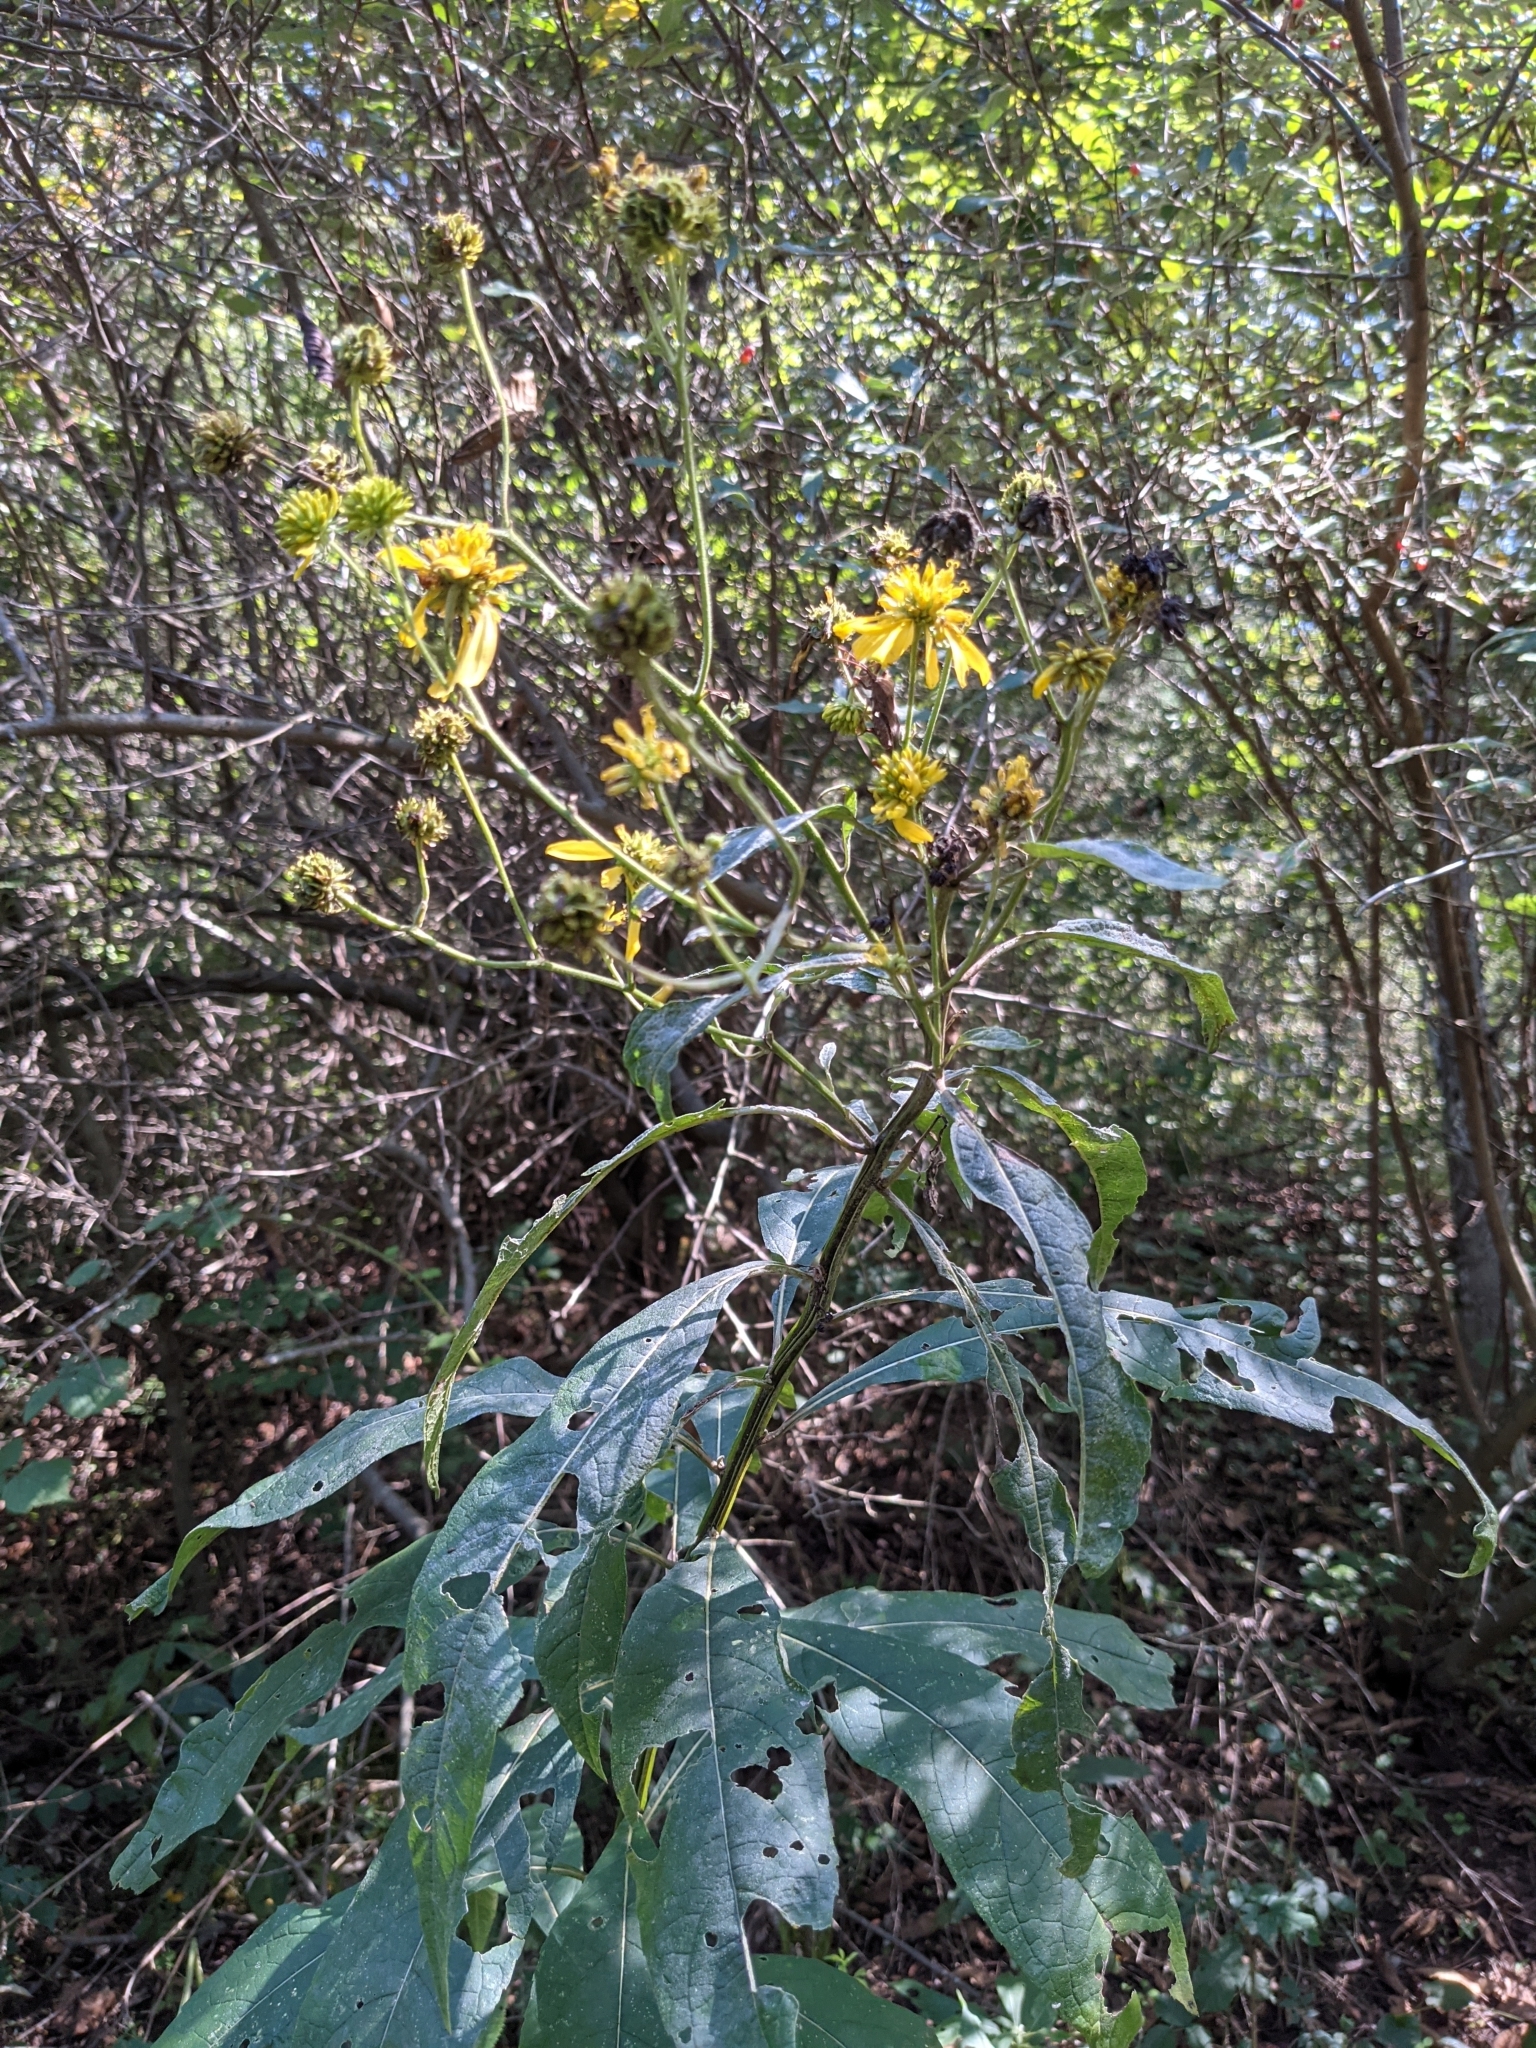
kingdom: Plantae
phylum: Tracheophyta
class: Magnoliopsida
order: Asterales
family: Asteraceae
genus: Verbesina
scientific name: Verbesina alternifolia
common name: Wingstem
